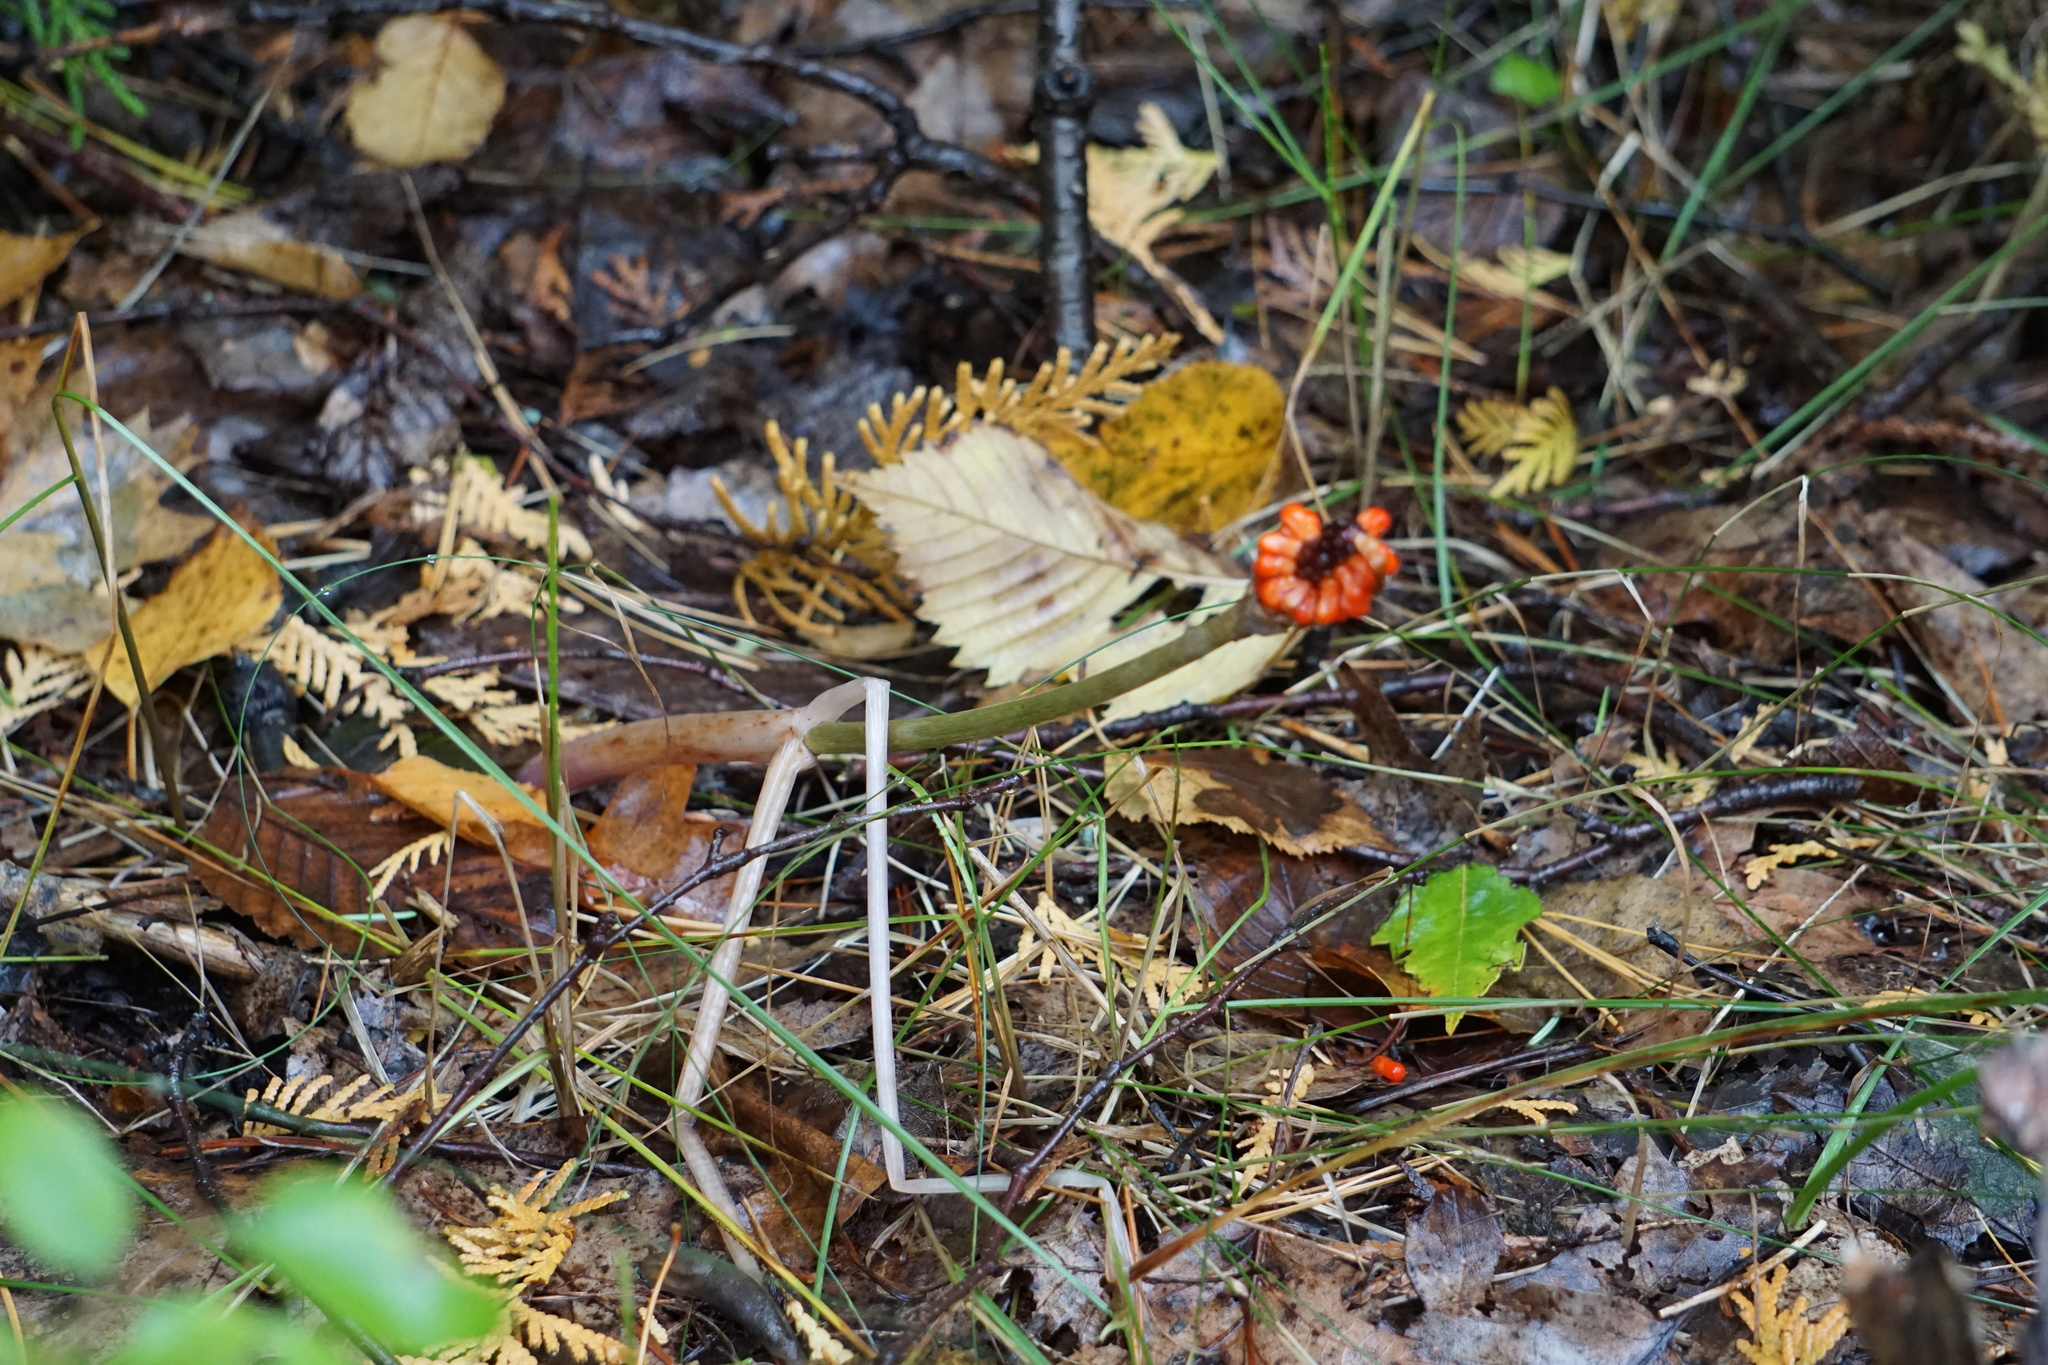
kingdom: Plantae
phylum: Tracheophyta
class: Liliopsida
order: Alismatales
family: Araceae
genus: Arisaema
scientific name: Arisaema triphyllum
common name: Jack-in-the-pulpit
